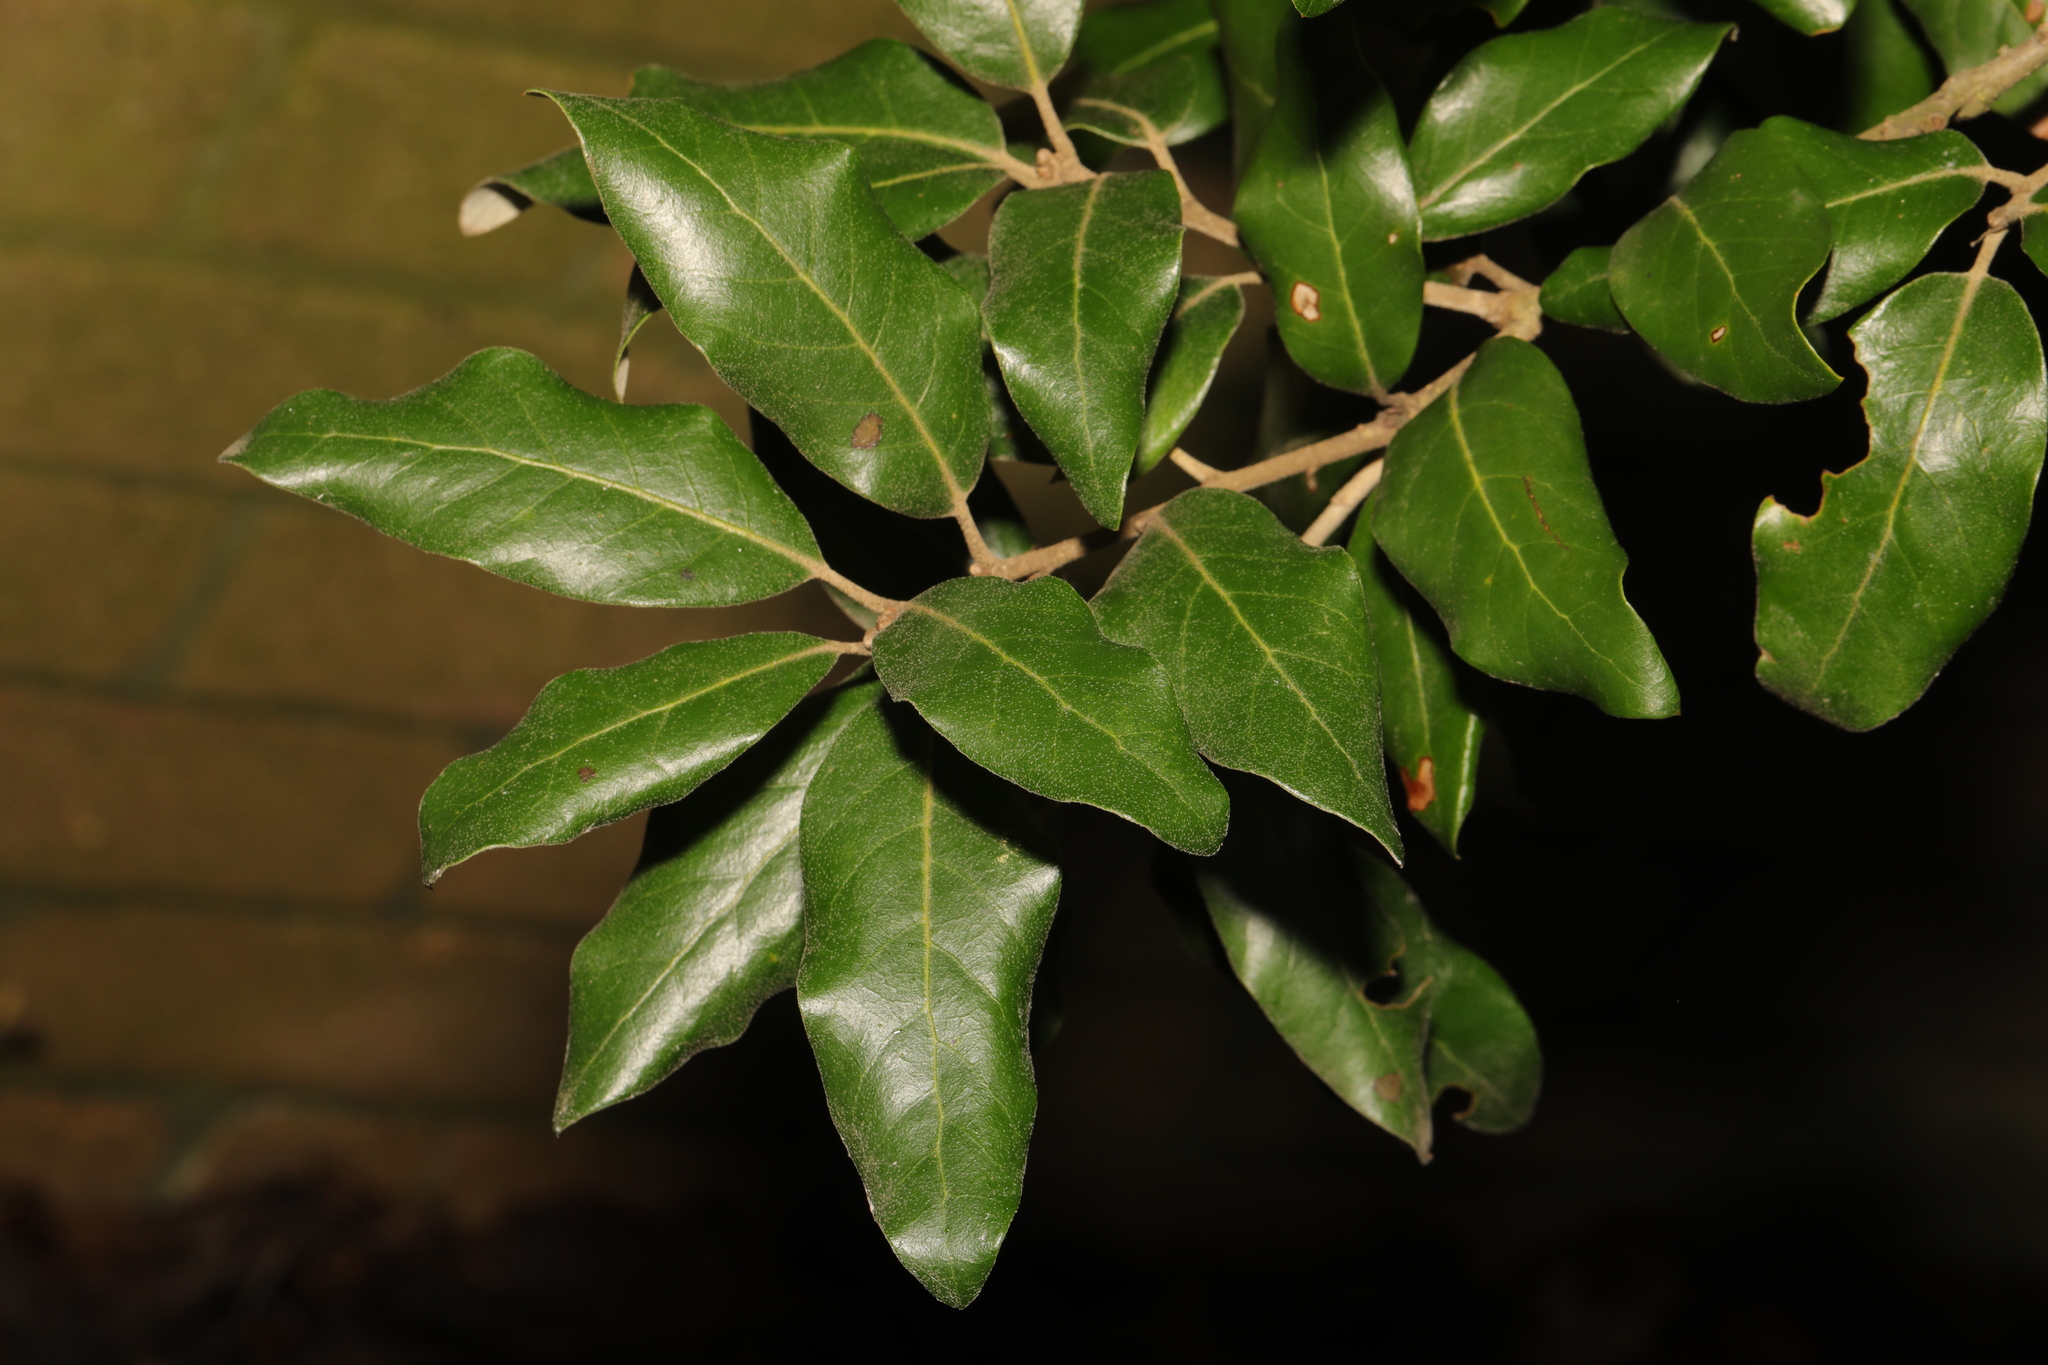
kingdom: Plantae
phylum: Tracheophyta
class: Magnoliopsida
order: Fagales
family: Fagaceae
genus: Quercus
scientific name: Quercus ilex
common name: Evergreen oak
